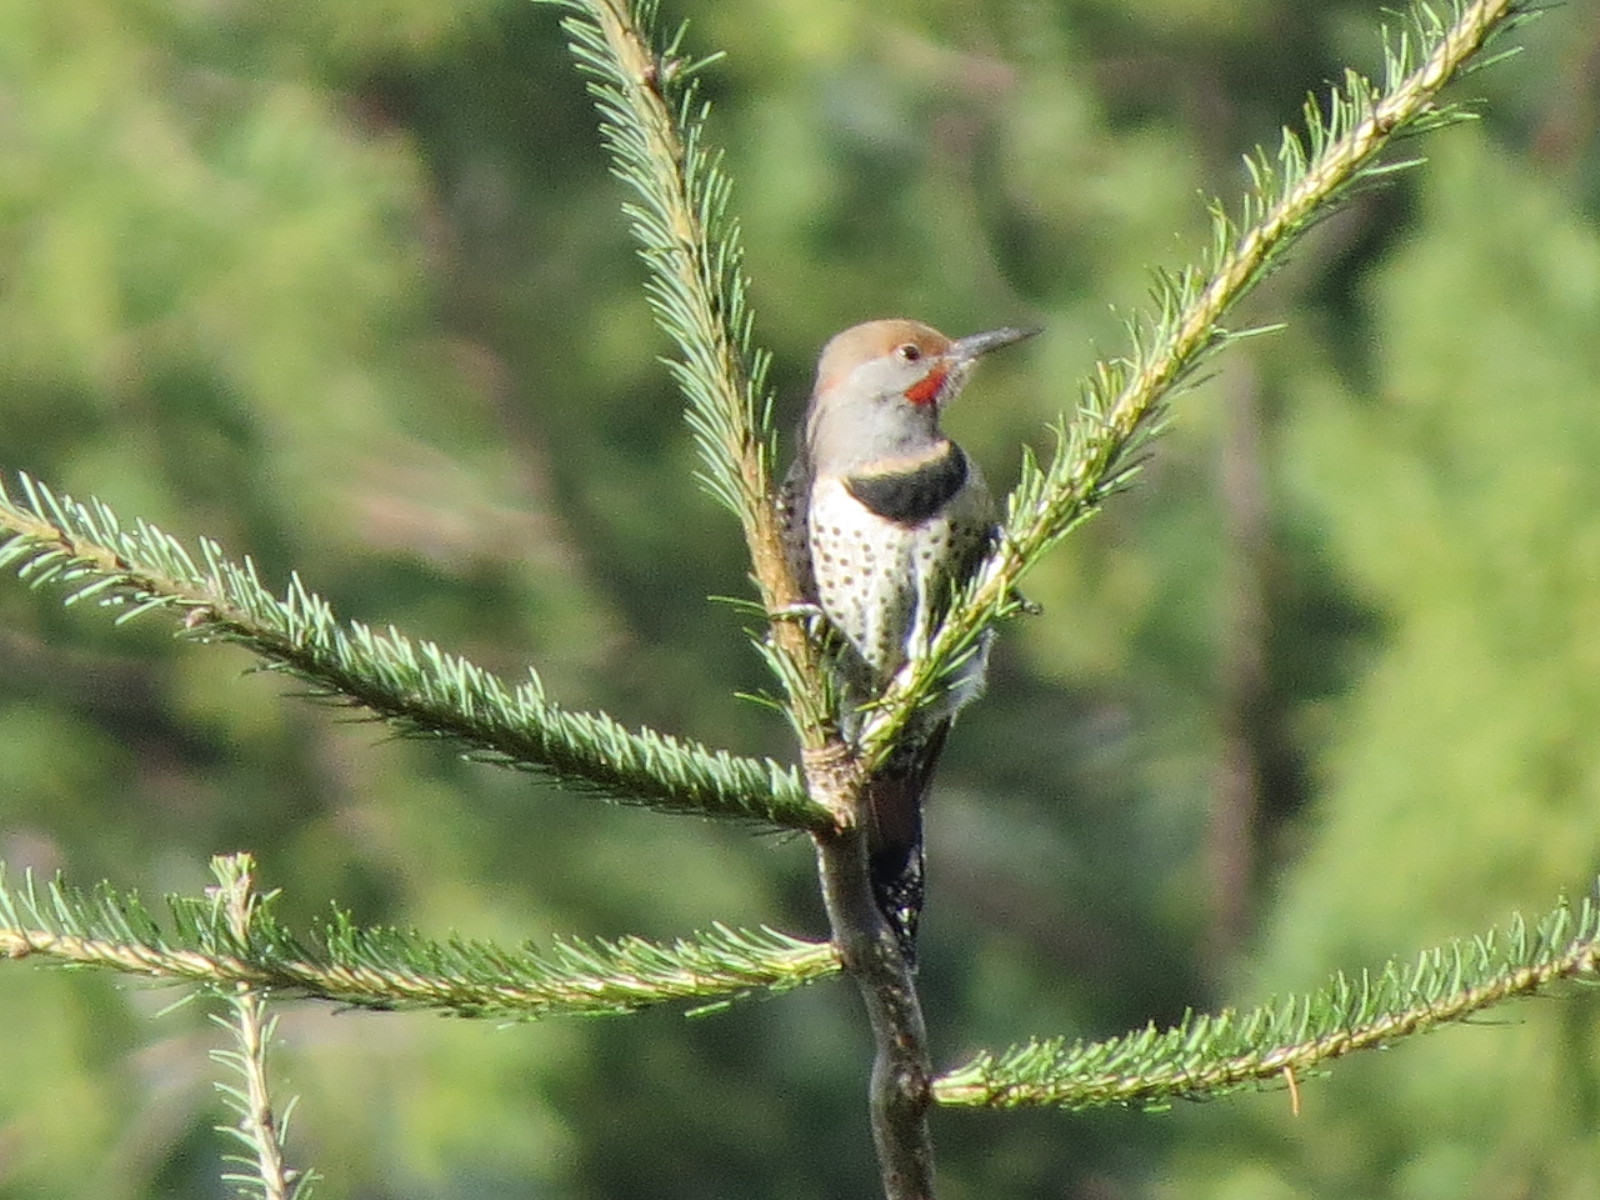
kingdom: Animalia
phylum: Chordata
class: Aves
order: Piciformes
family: Picidae
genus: Colaptes
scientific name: Colaptes auratus
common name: Northern flicker
